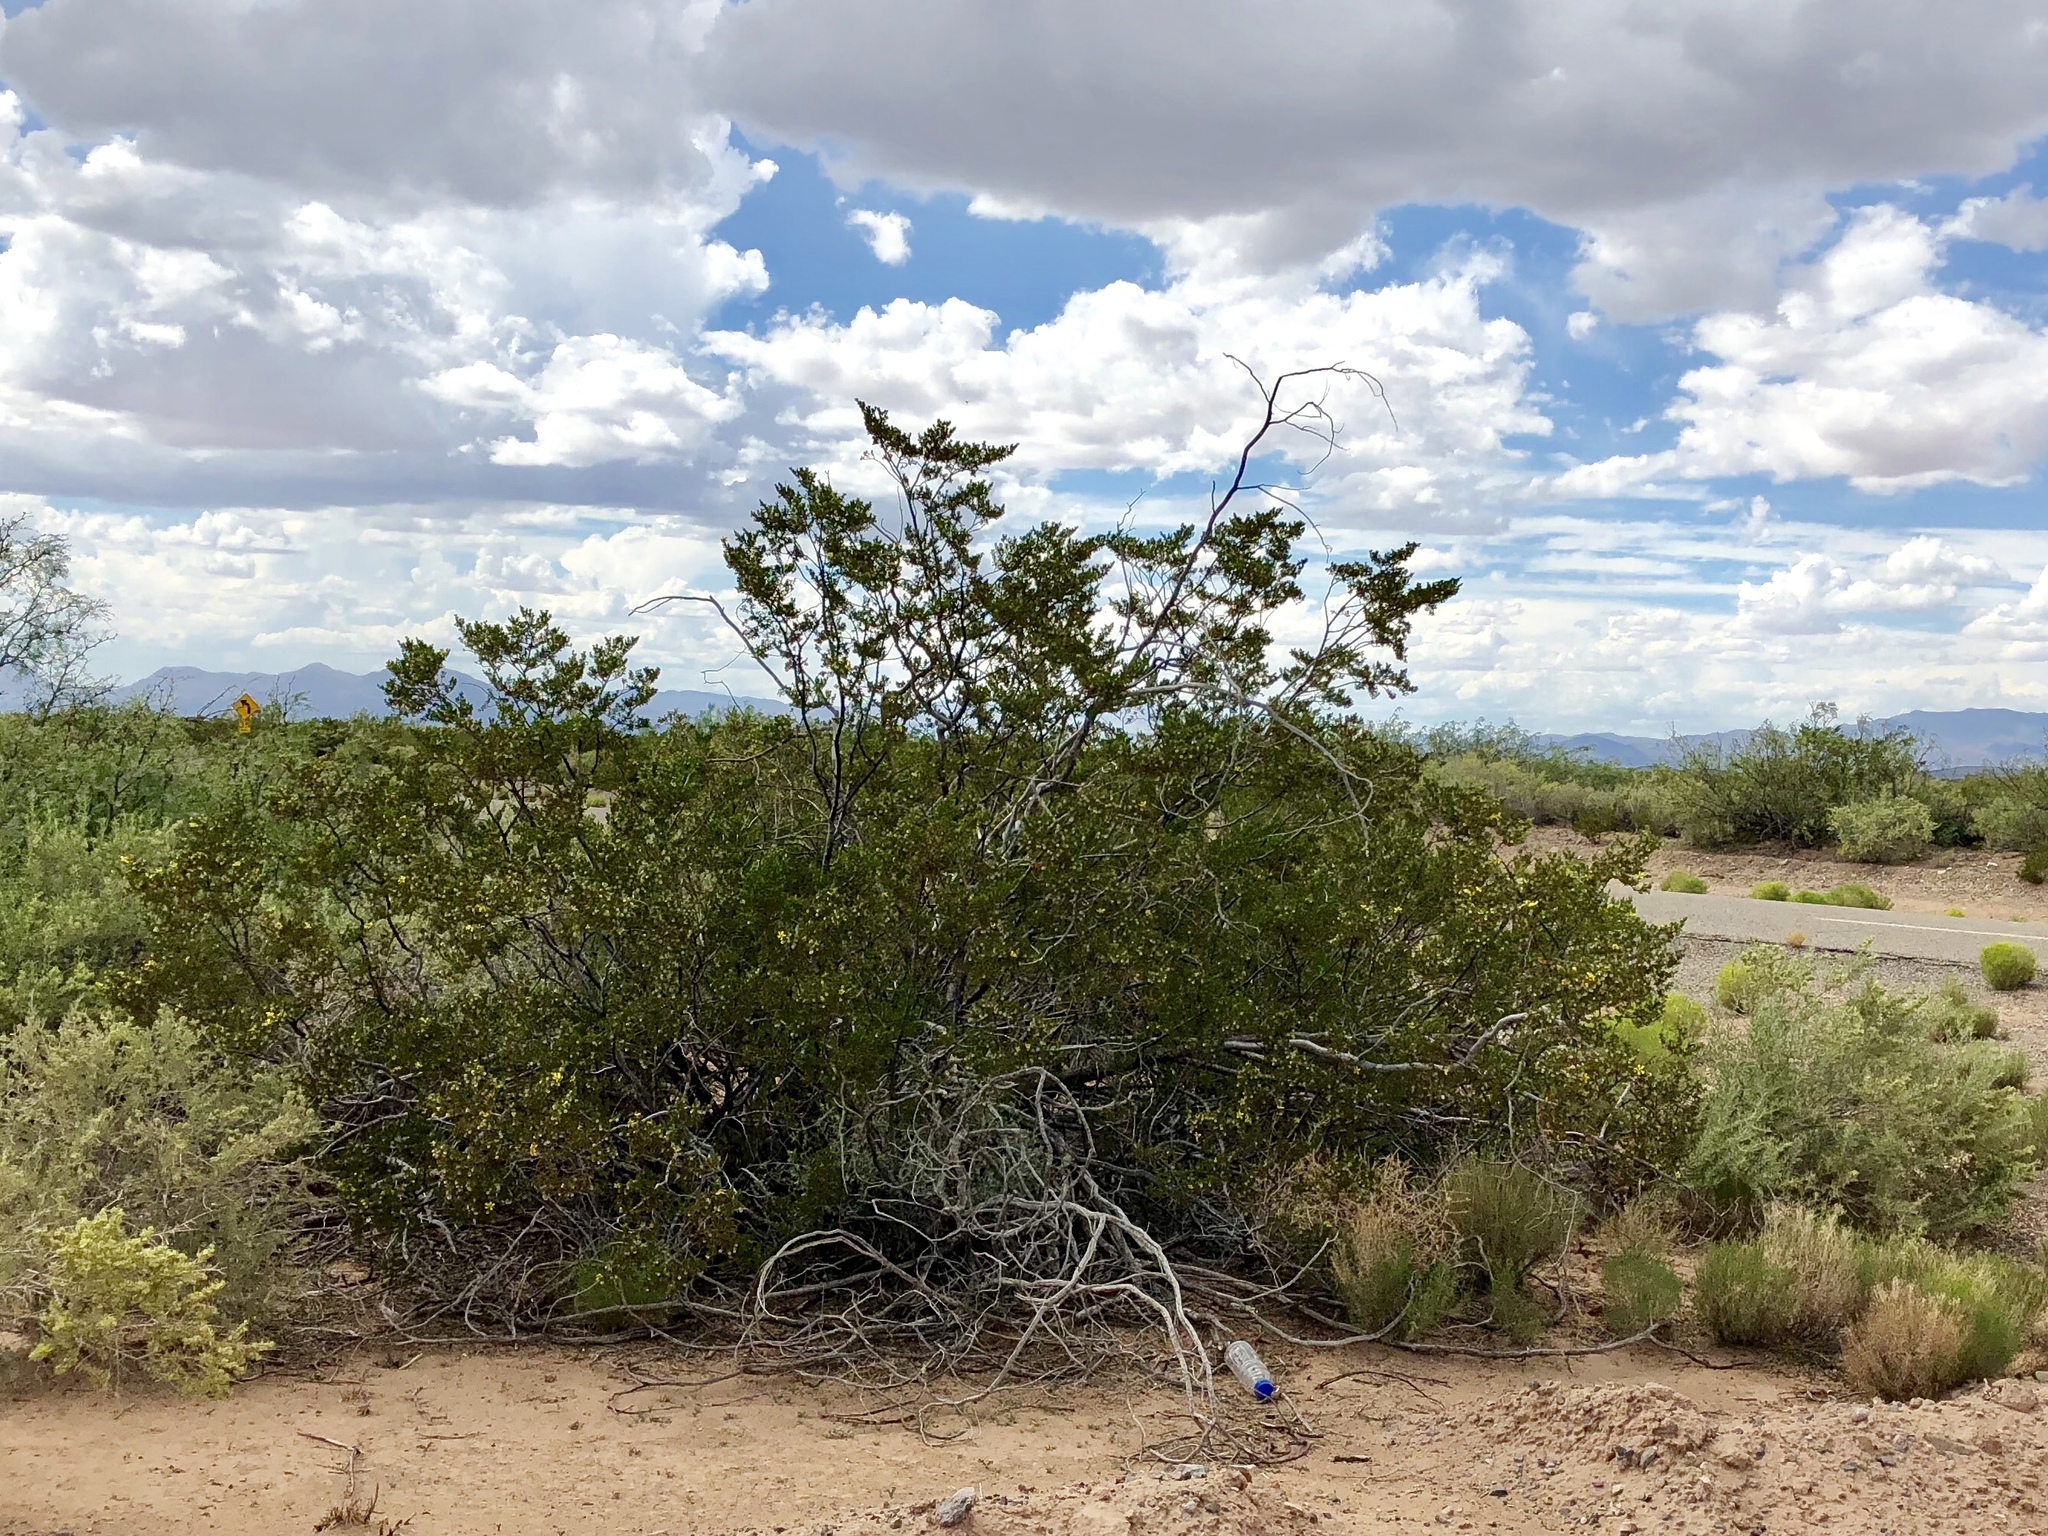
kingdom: Plantae
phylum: Tracheophyta
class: Magnoliopsida
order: Zygophyllales
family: Zygophyllaceae
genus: Larrea
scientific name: Larrea tridentata
